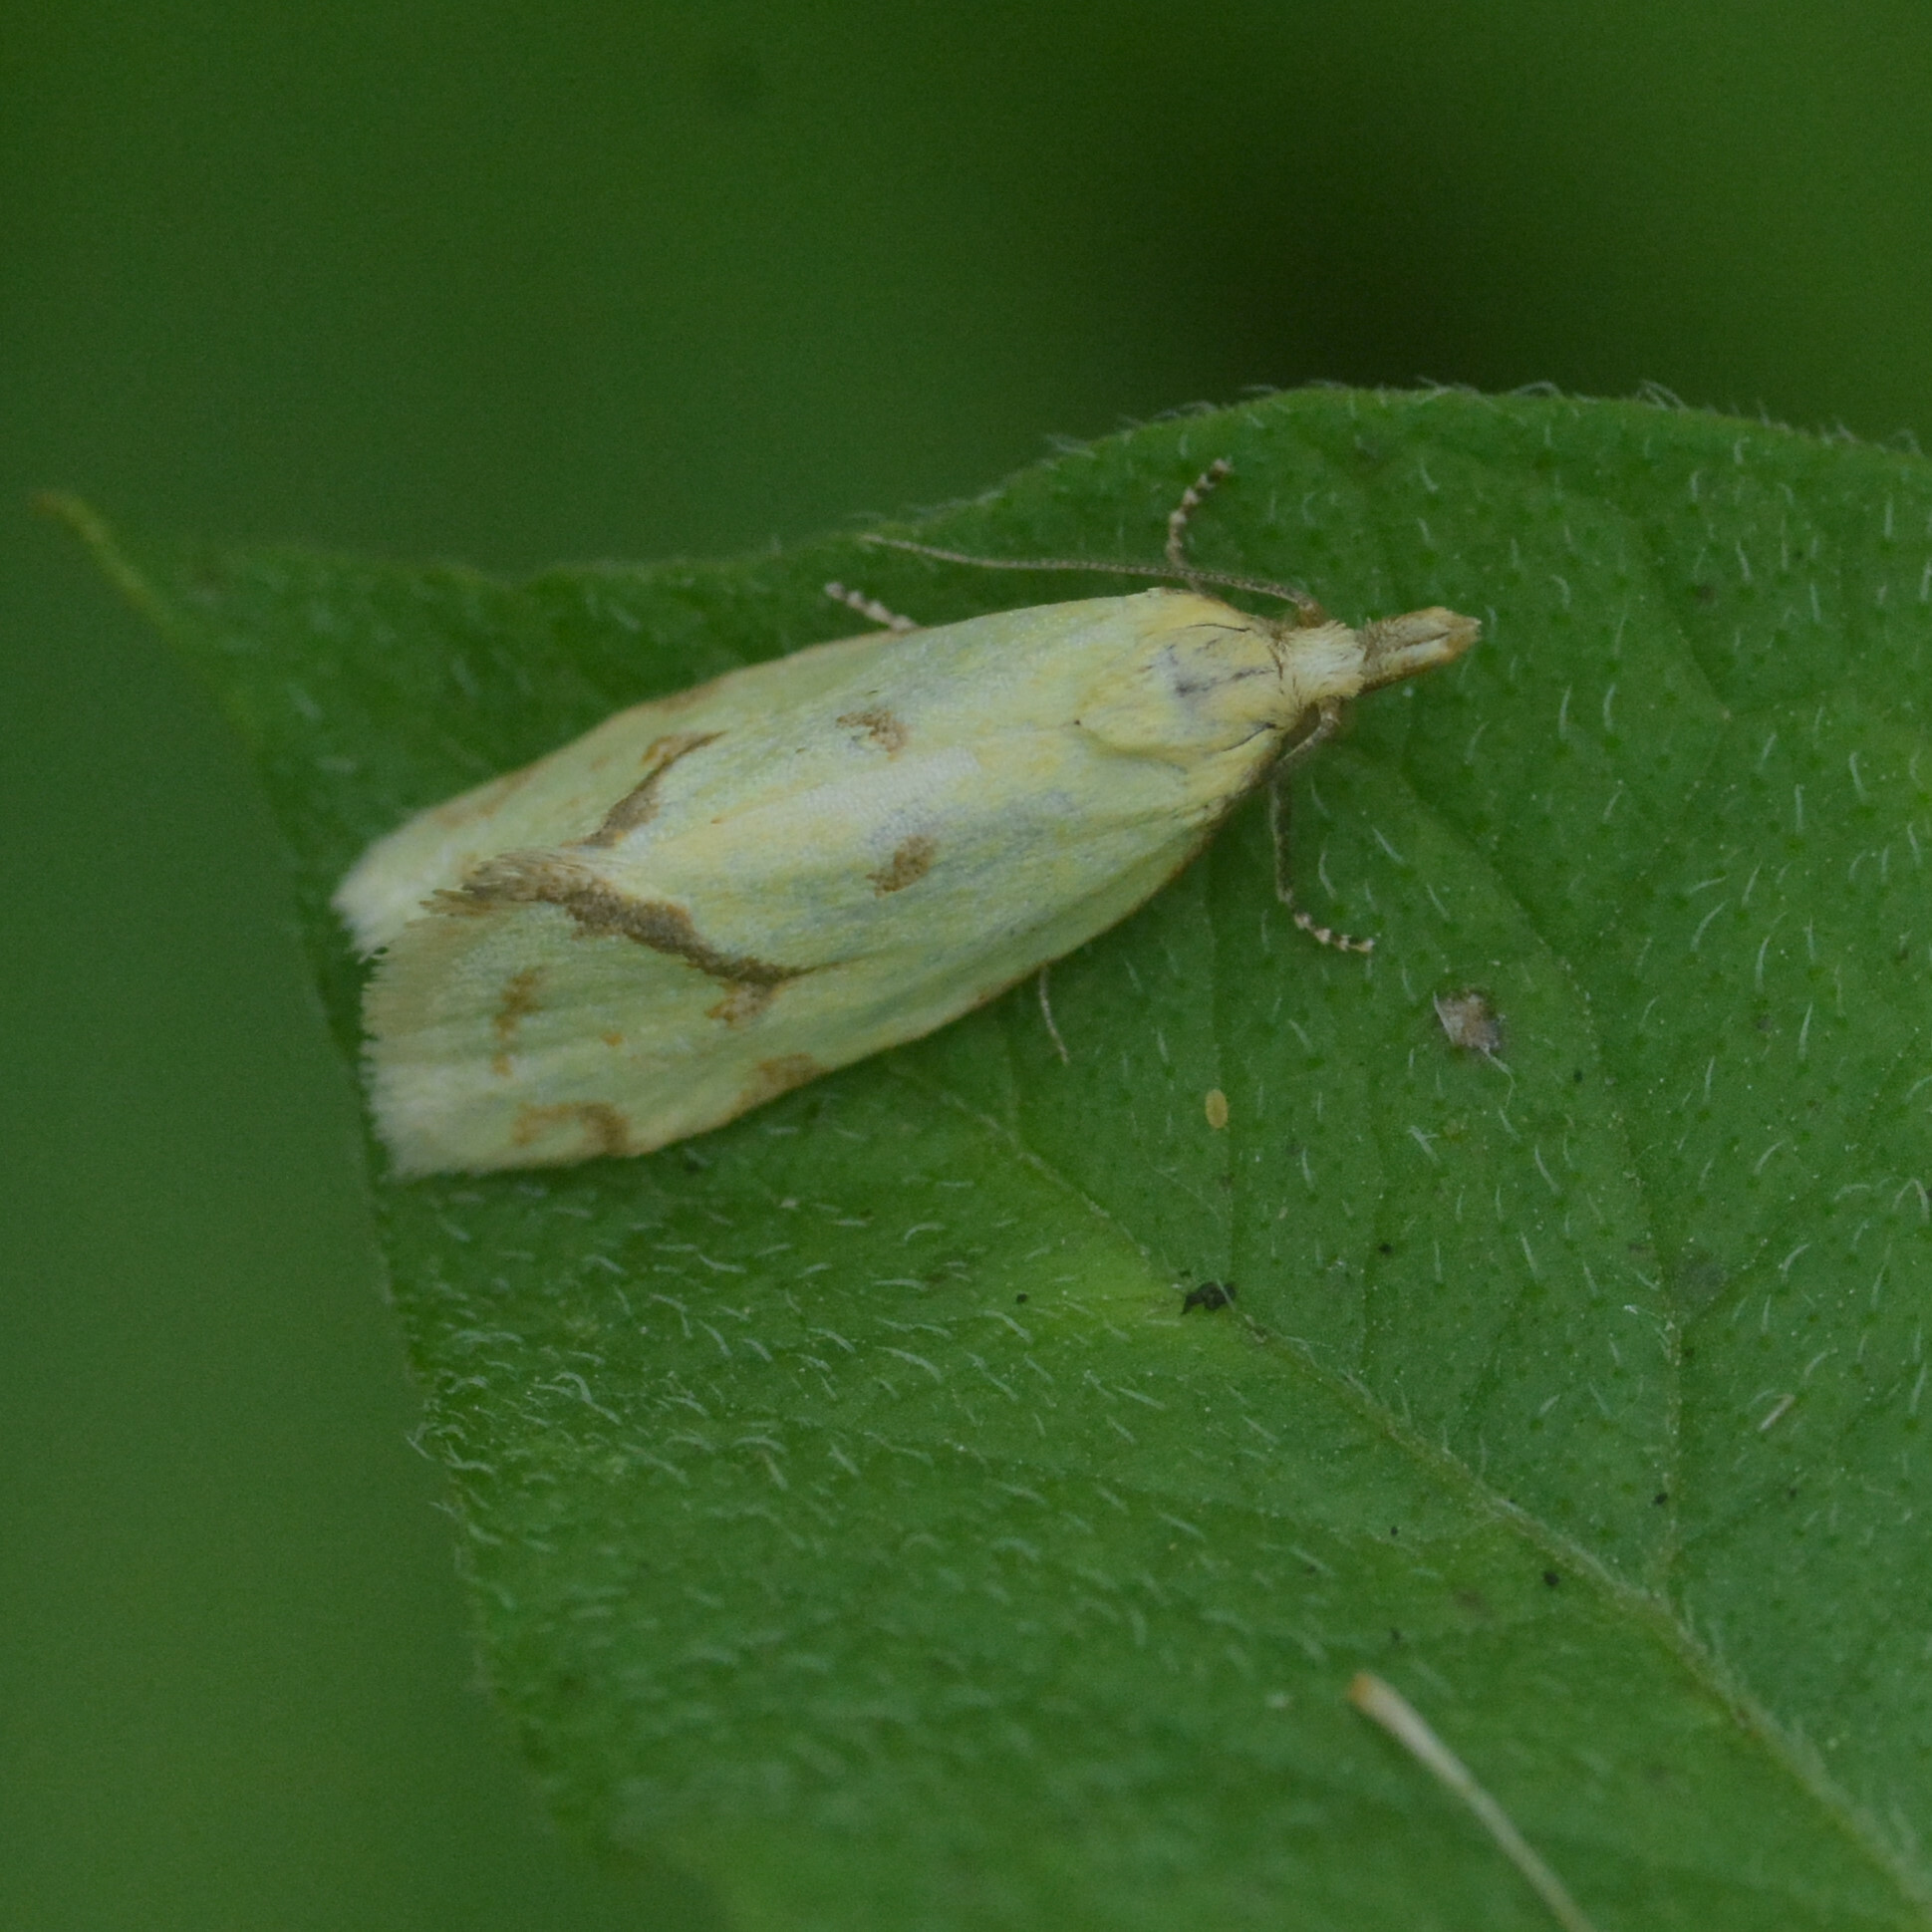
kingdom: Animalia
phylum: Arthropoda
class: Insecta
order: Lepidoptera
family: Tortricidae
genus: Agapeta
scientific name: Agapeta hamana
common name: Common yellow conch
